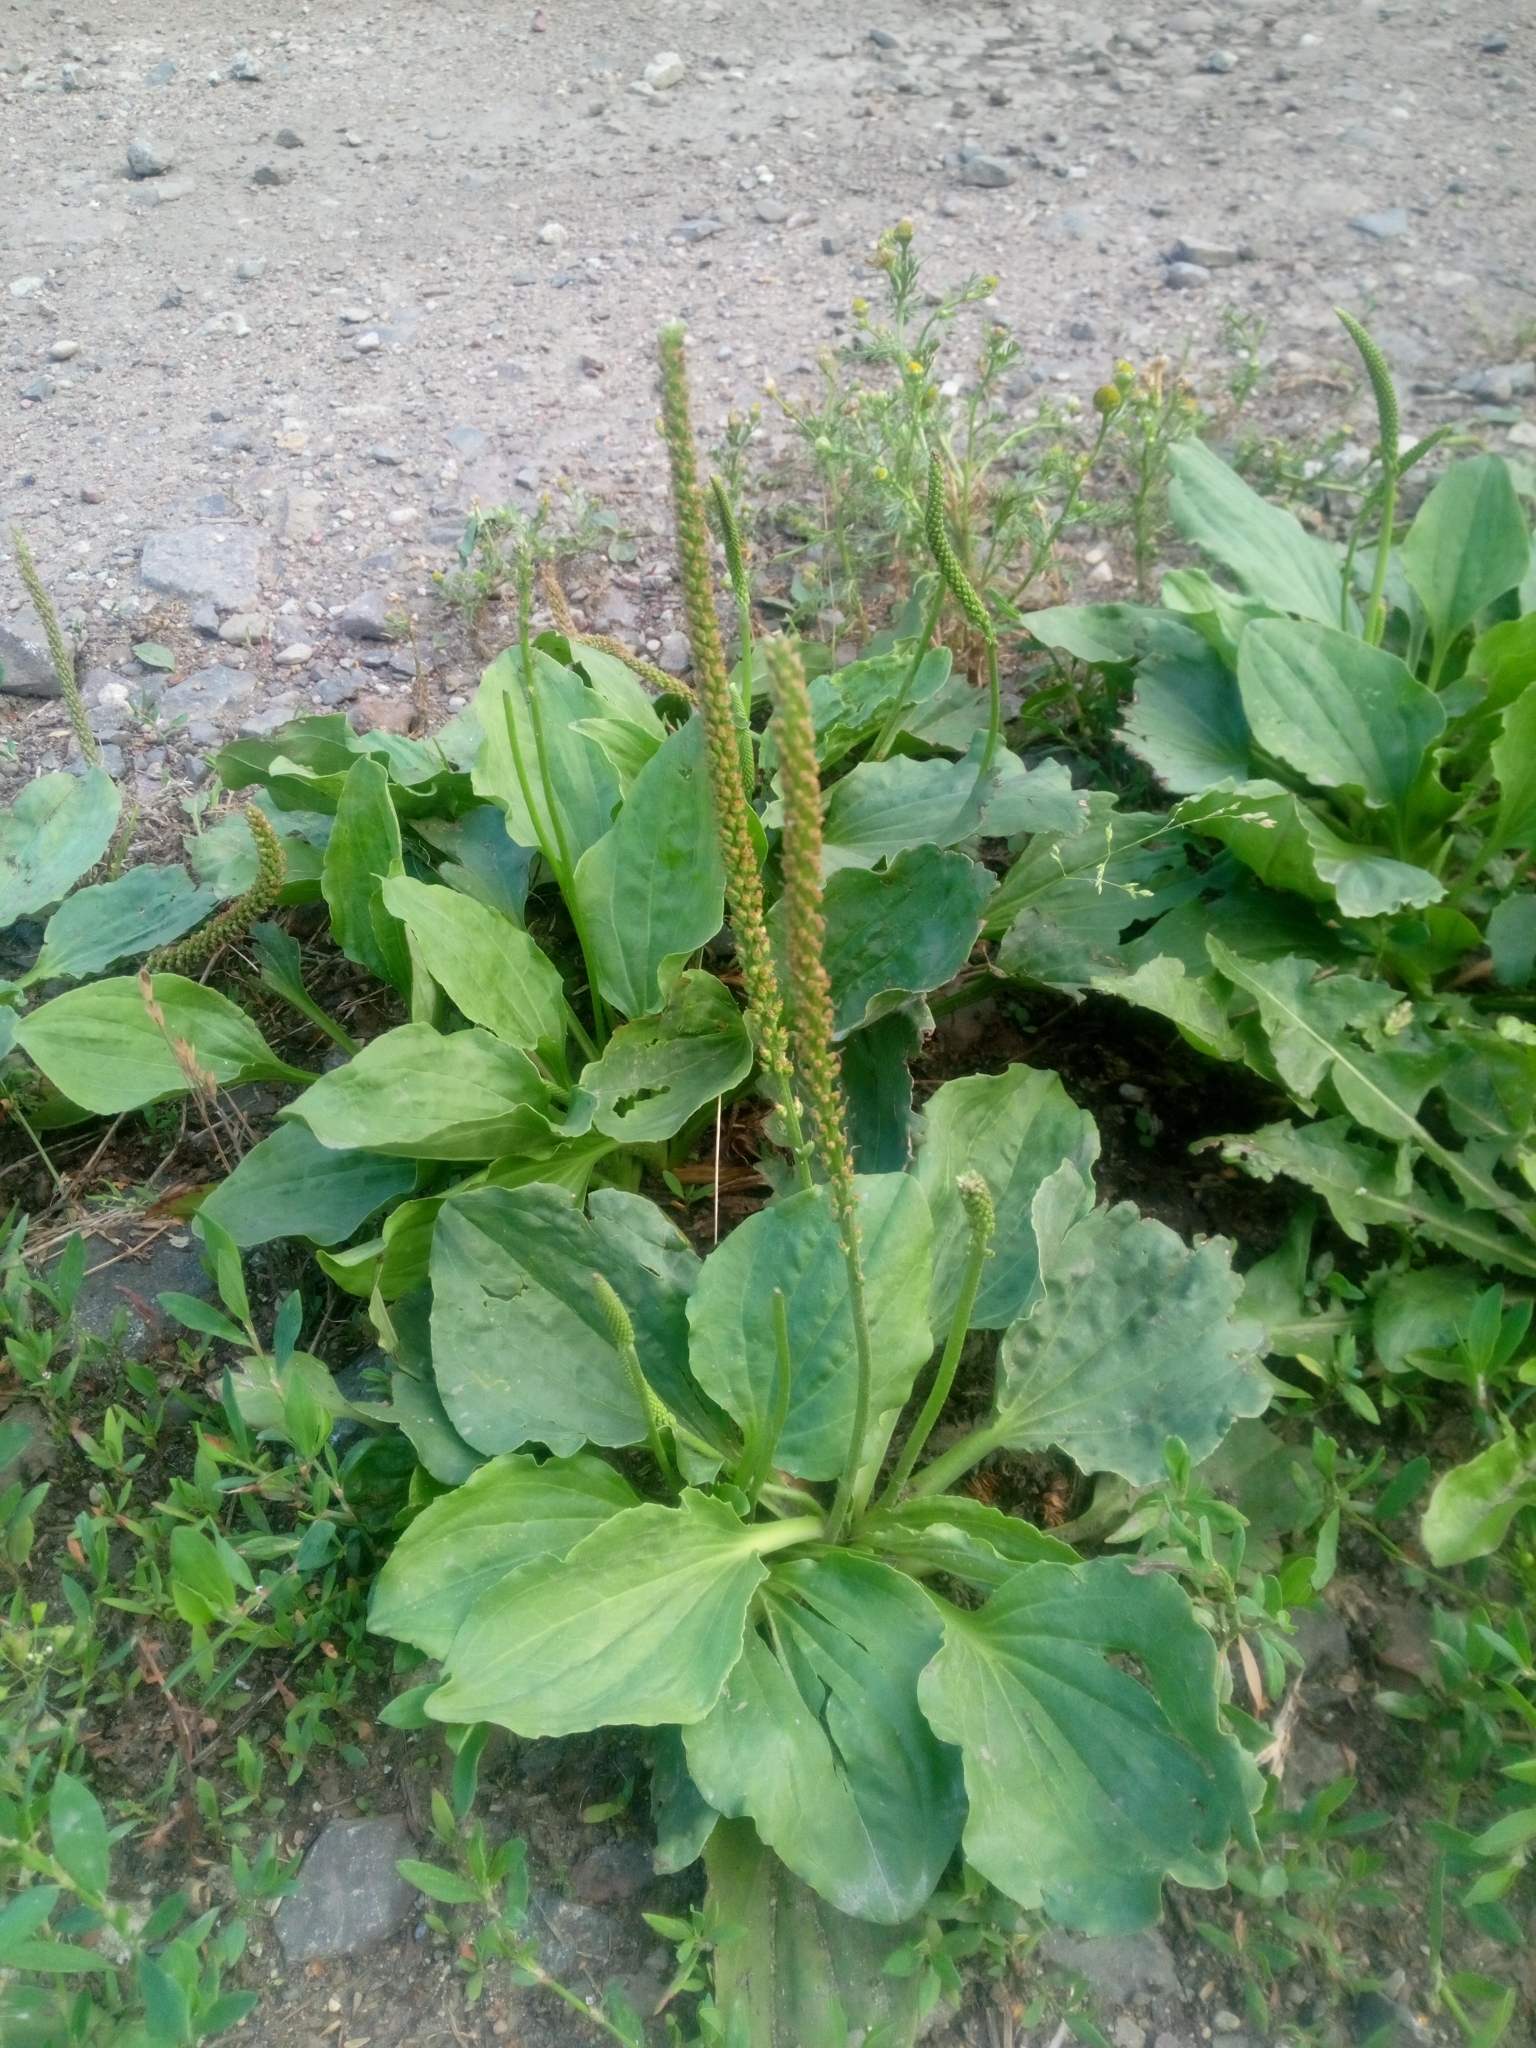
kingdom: Plantae
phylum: Tracheophyta
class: Magnoliopsida
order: Lamiales
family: Plantaginaceae
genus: Plantago
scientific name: Plantago major
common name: Common plantain
